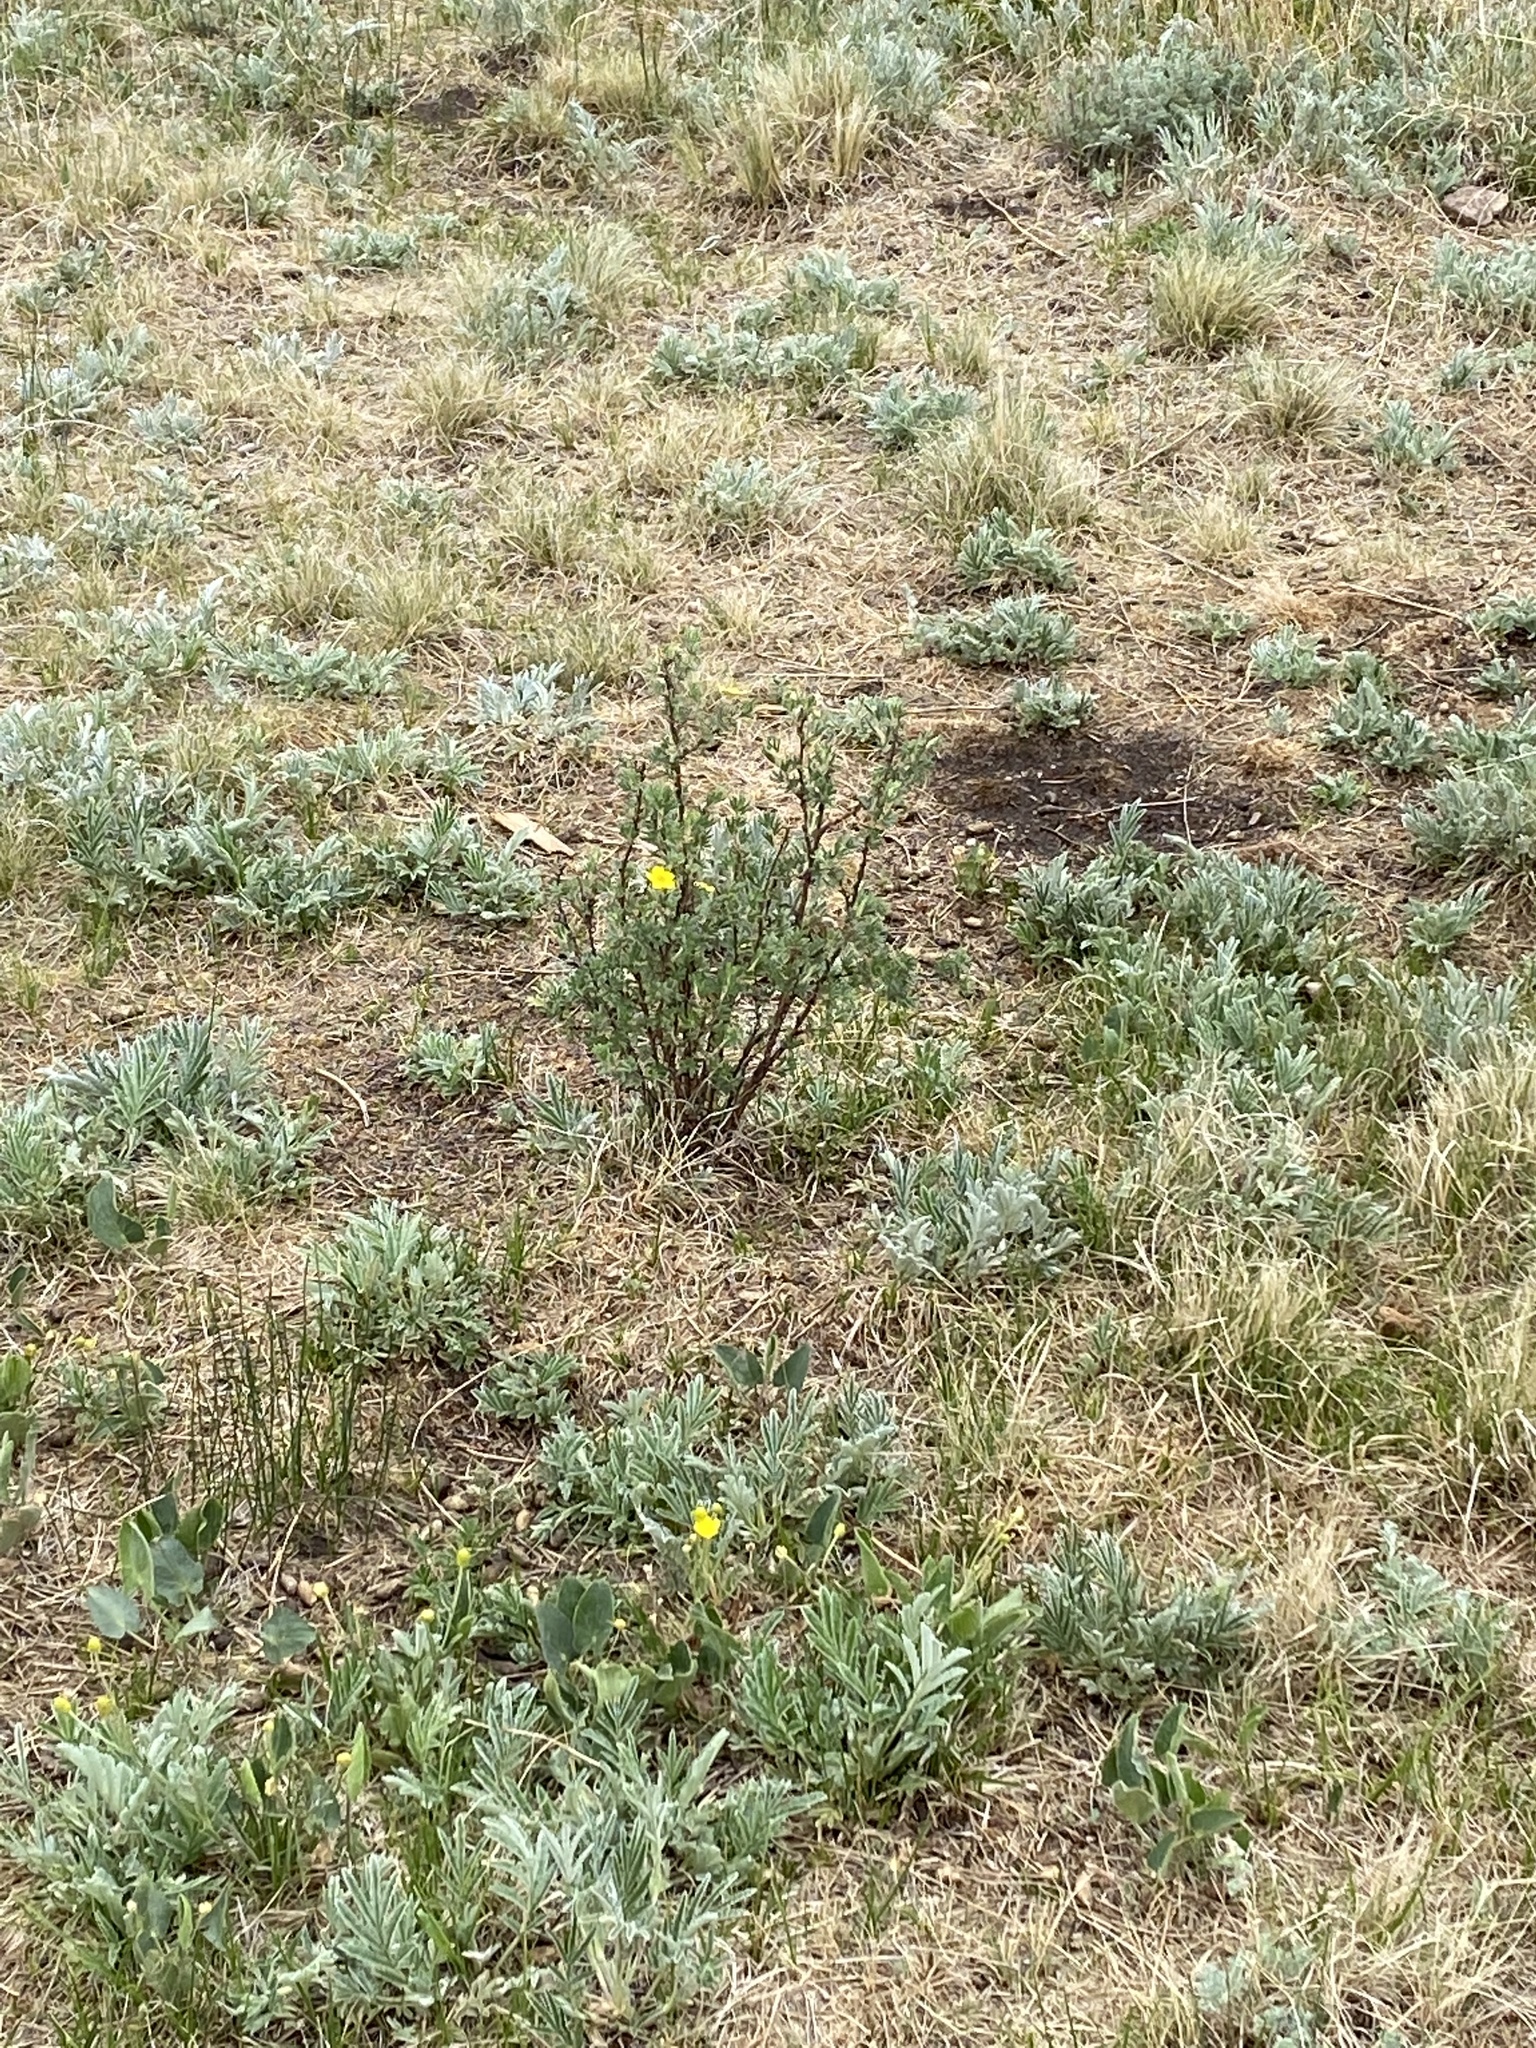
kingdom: Plantae
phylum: Tracheophyta
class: Magnoliopsida
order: Rosales
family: Rosaceae
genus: Dasiphora
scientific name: Dasiphora fruticosa
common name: Shrubby cinquefoil
